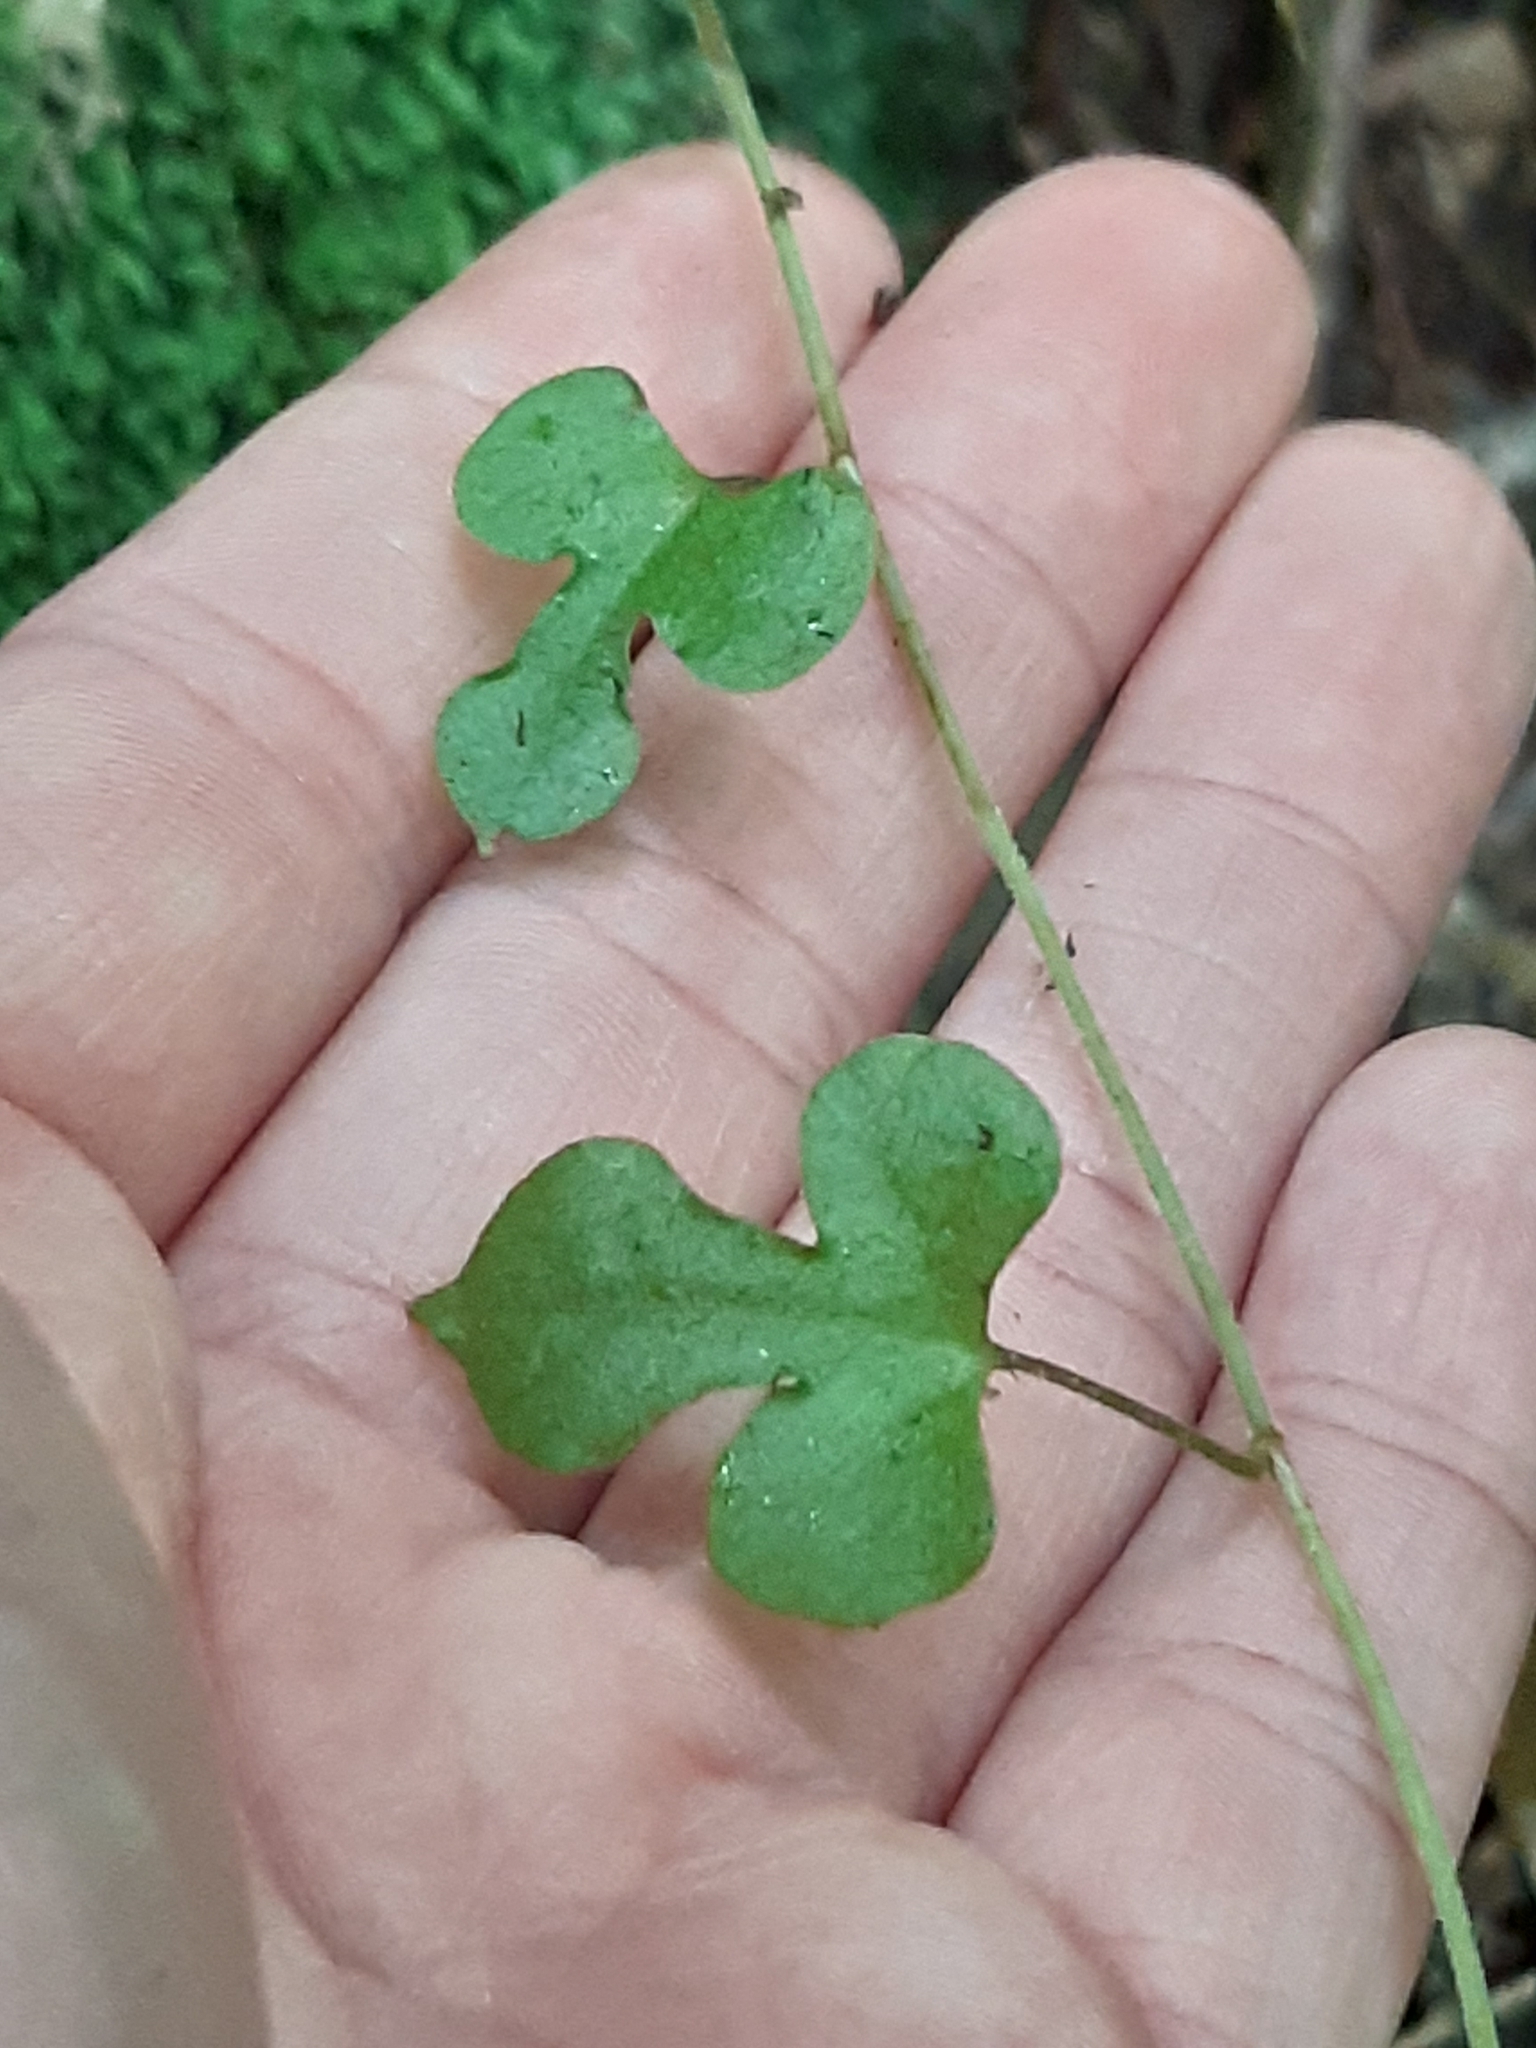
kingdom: Plantae
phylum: Tracheophyta
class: Magnoliopsida
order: Caryophyllales
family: Polygonaceae
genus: Muehlenbeckia
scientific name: Muehlenbeckia australis
